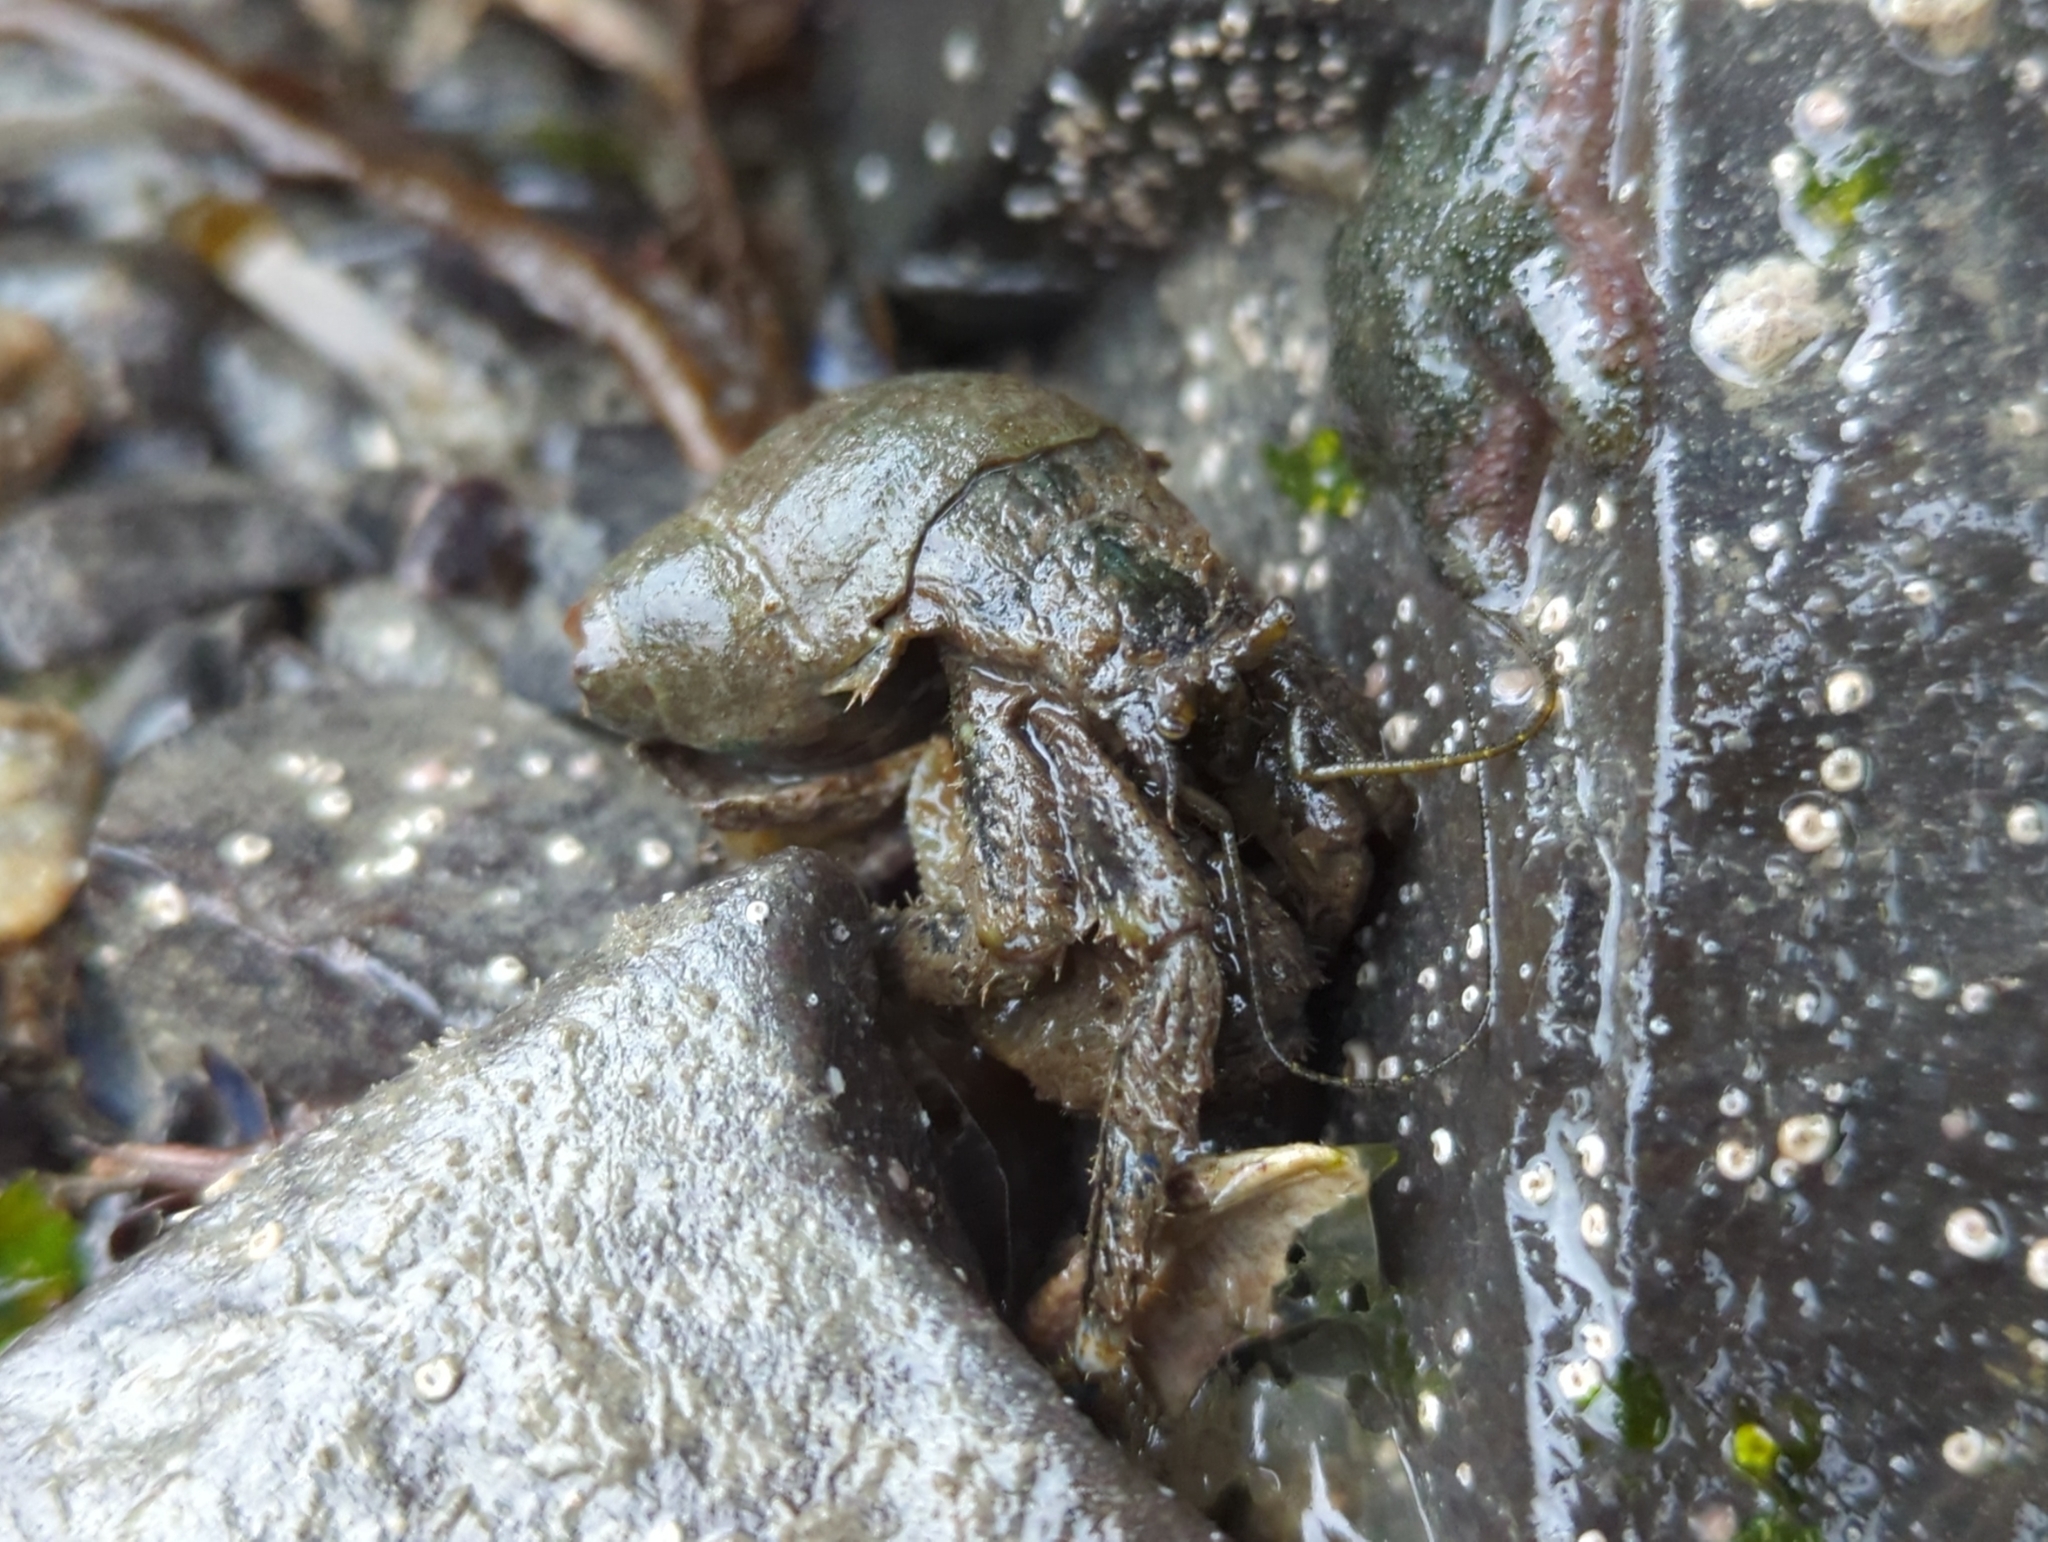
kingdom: Animalia
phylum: Arthropoda
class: Malacostraca
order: Decapoda
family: Paguridae
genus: Pagurus
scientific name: Pagurus hirsutiusculus
